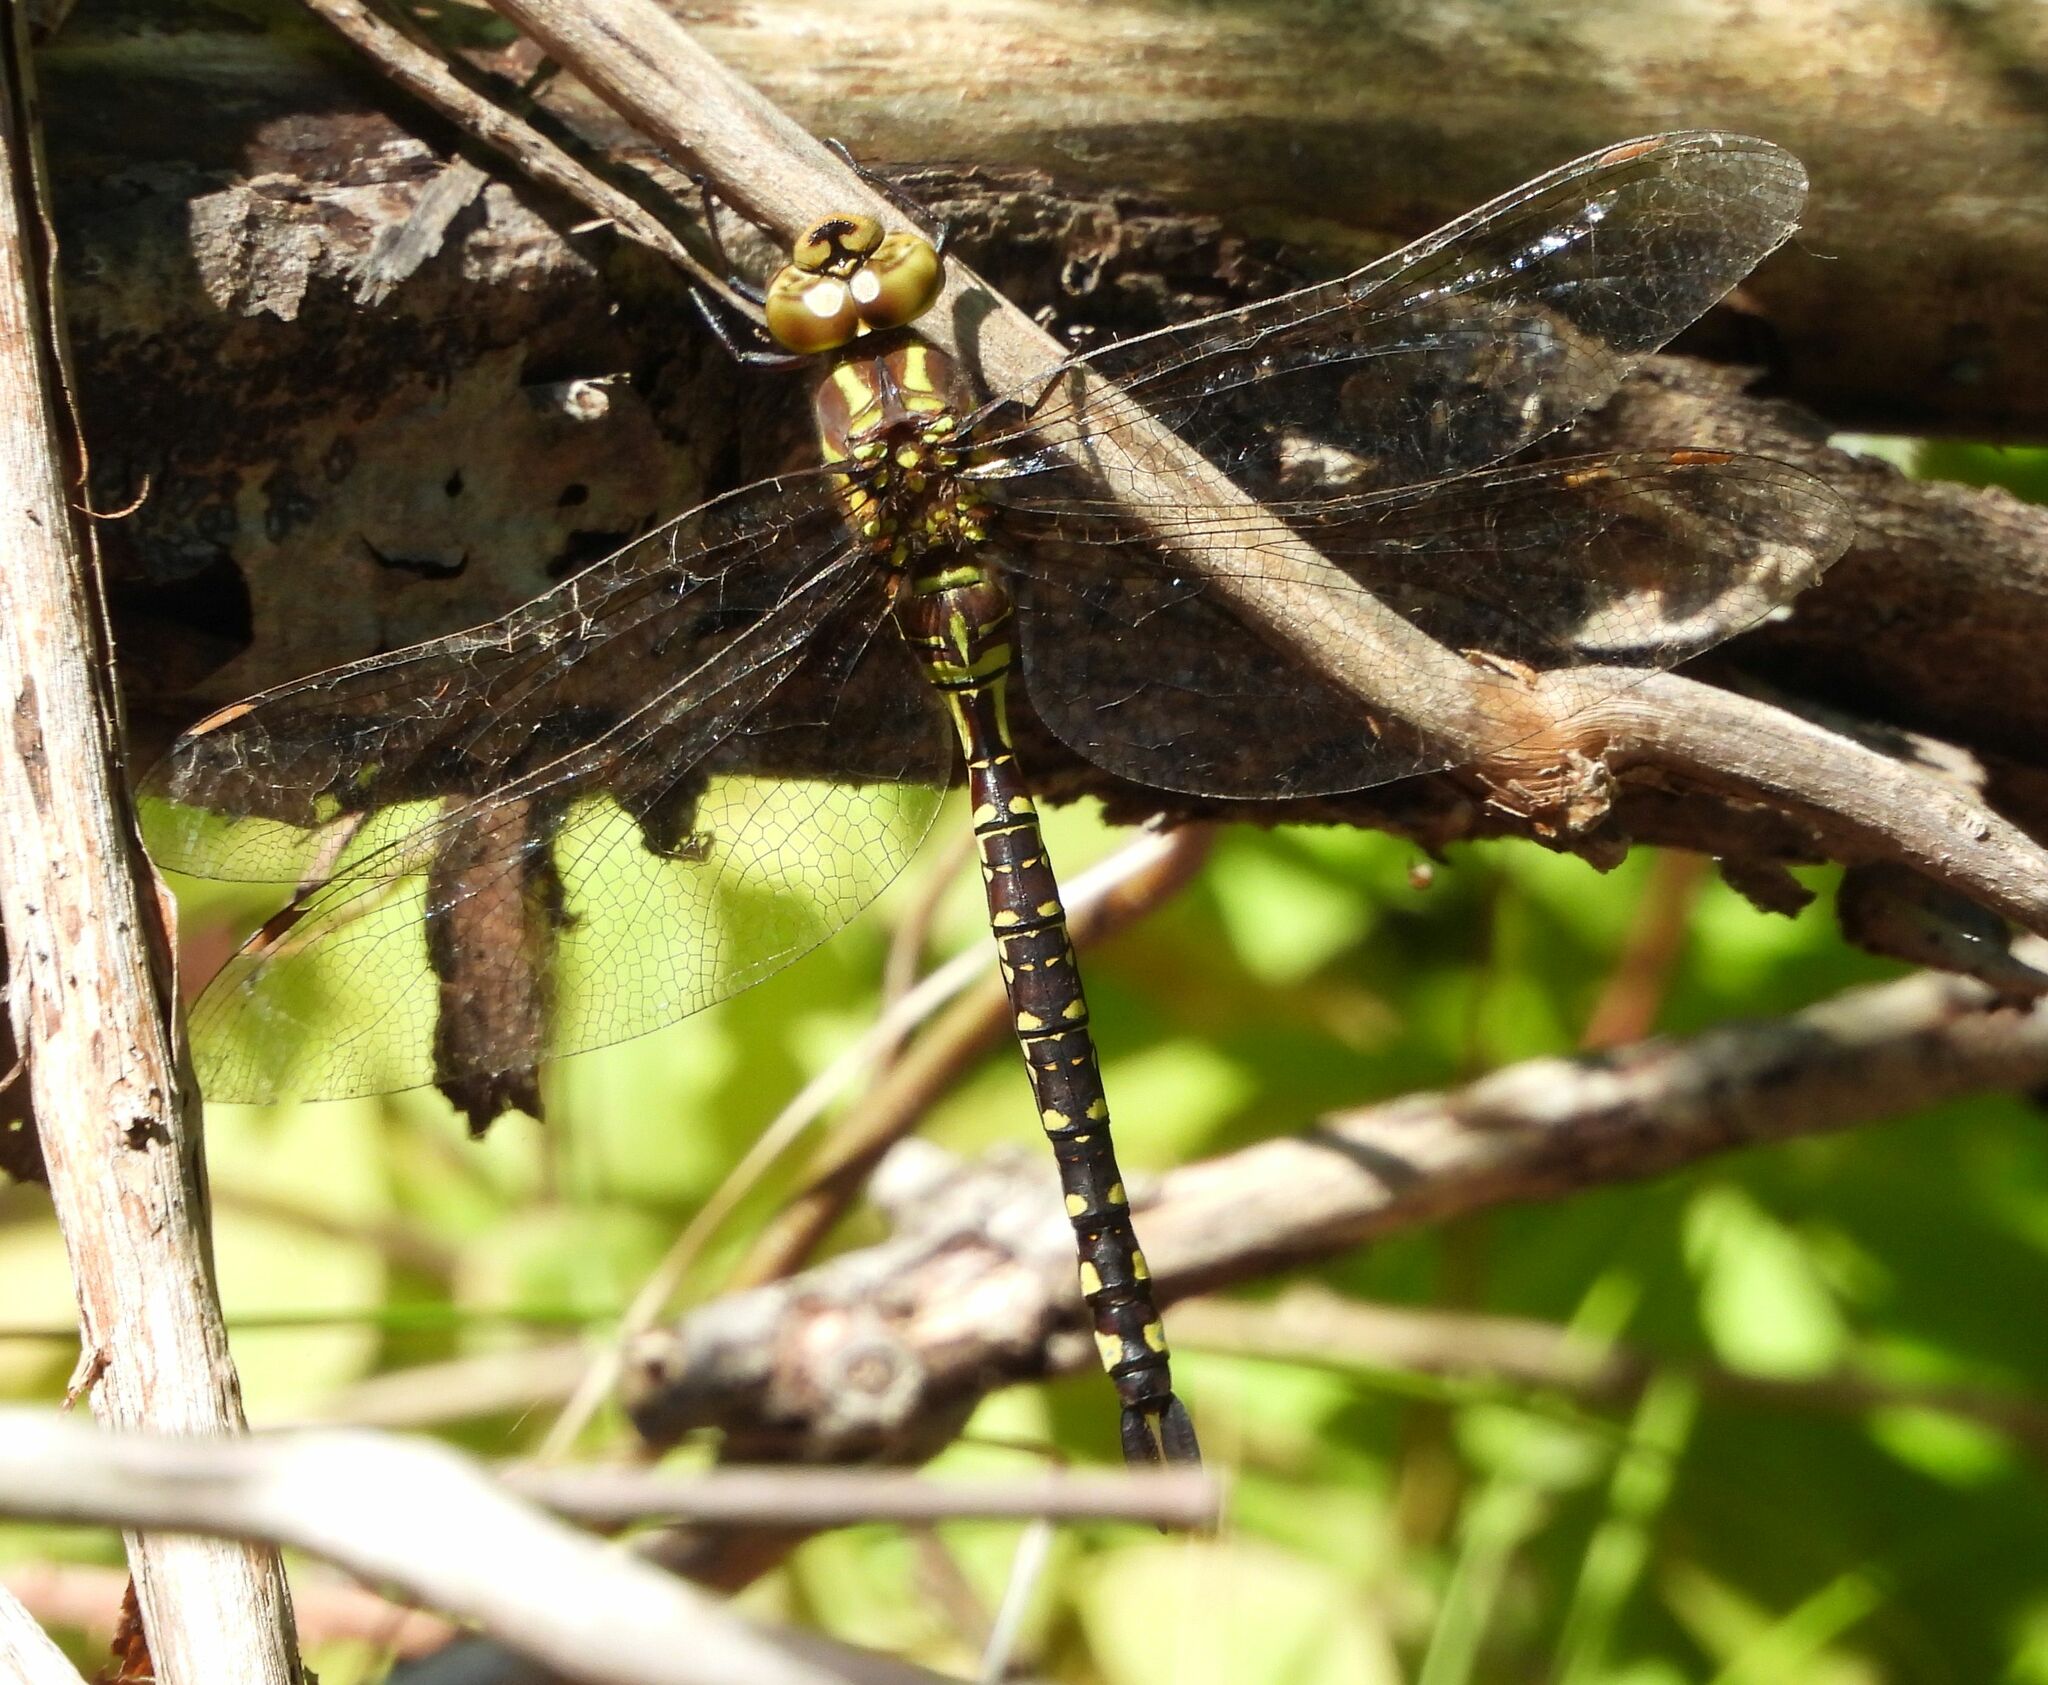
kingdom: Animalia
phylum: Arthropoda
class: Insecta
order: Odonata
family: Aeshnidae
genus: Aeshna
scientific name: Aeshna constricta
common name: Lance-tipped darner
